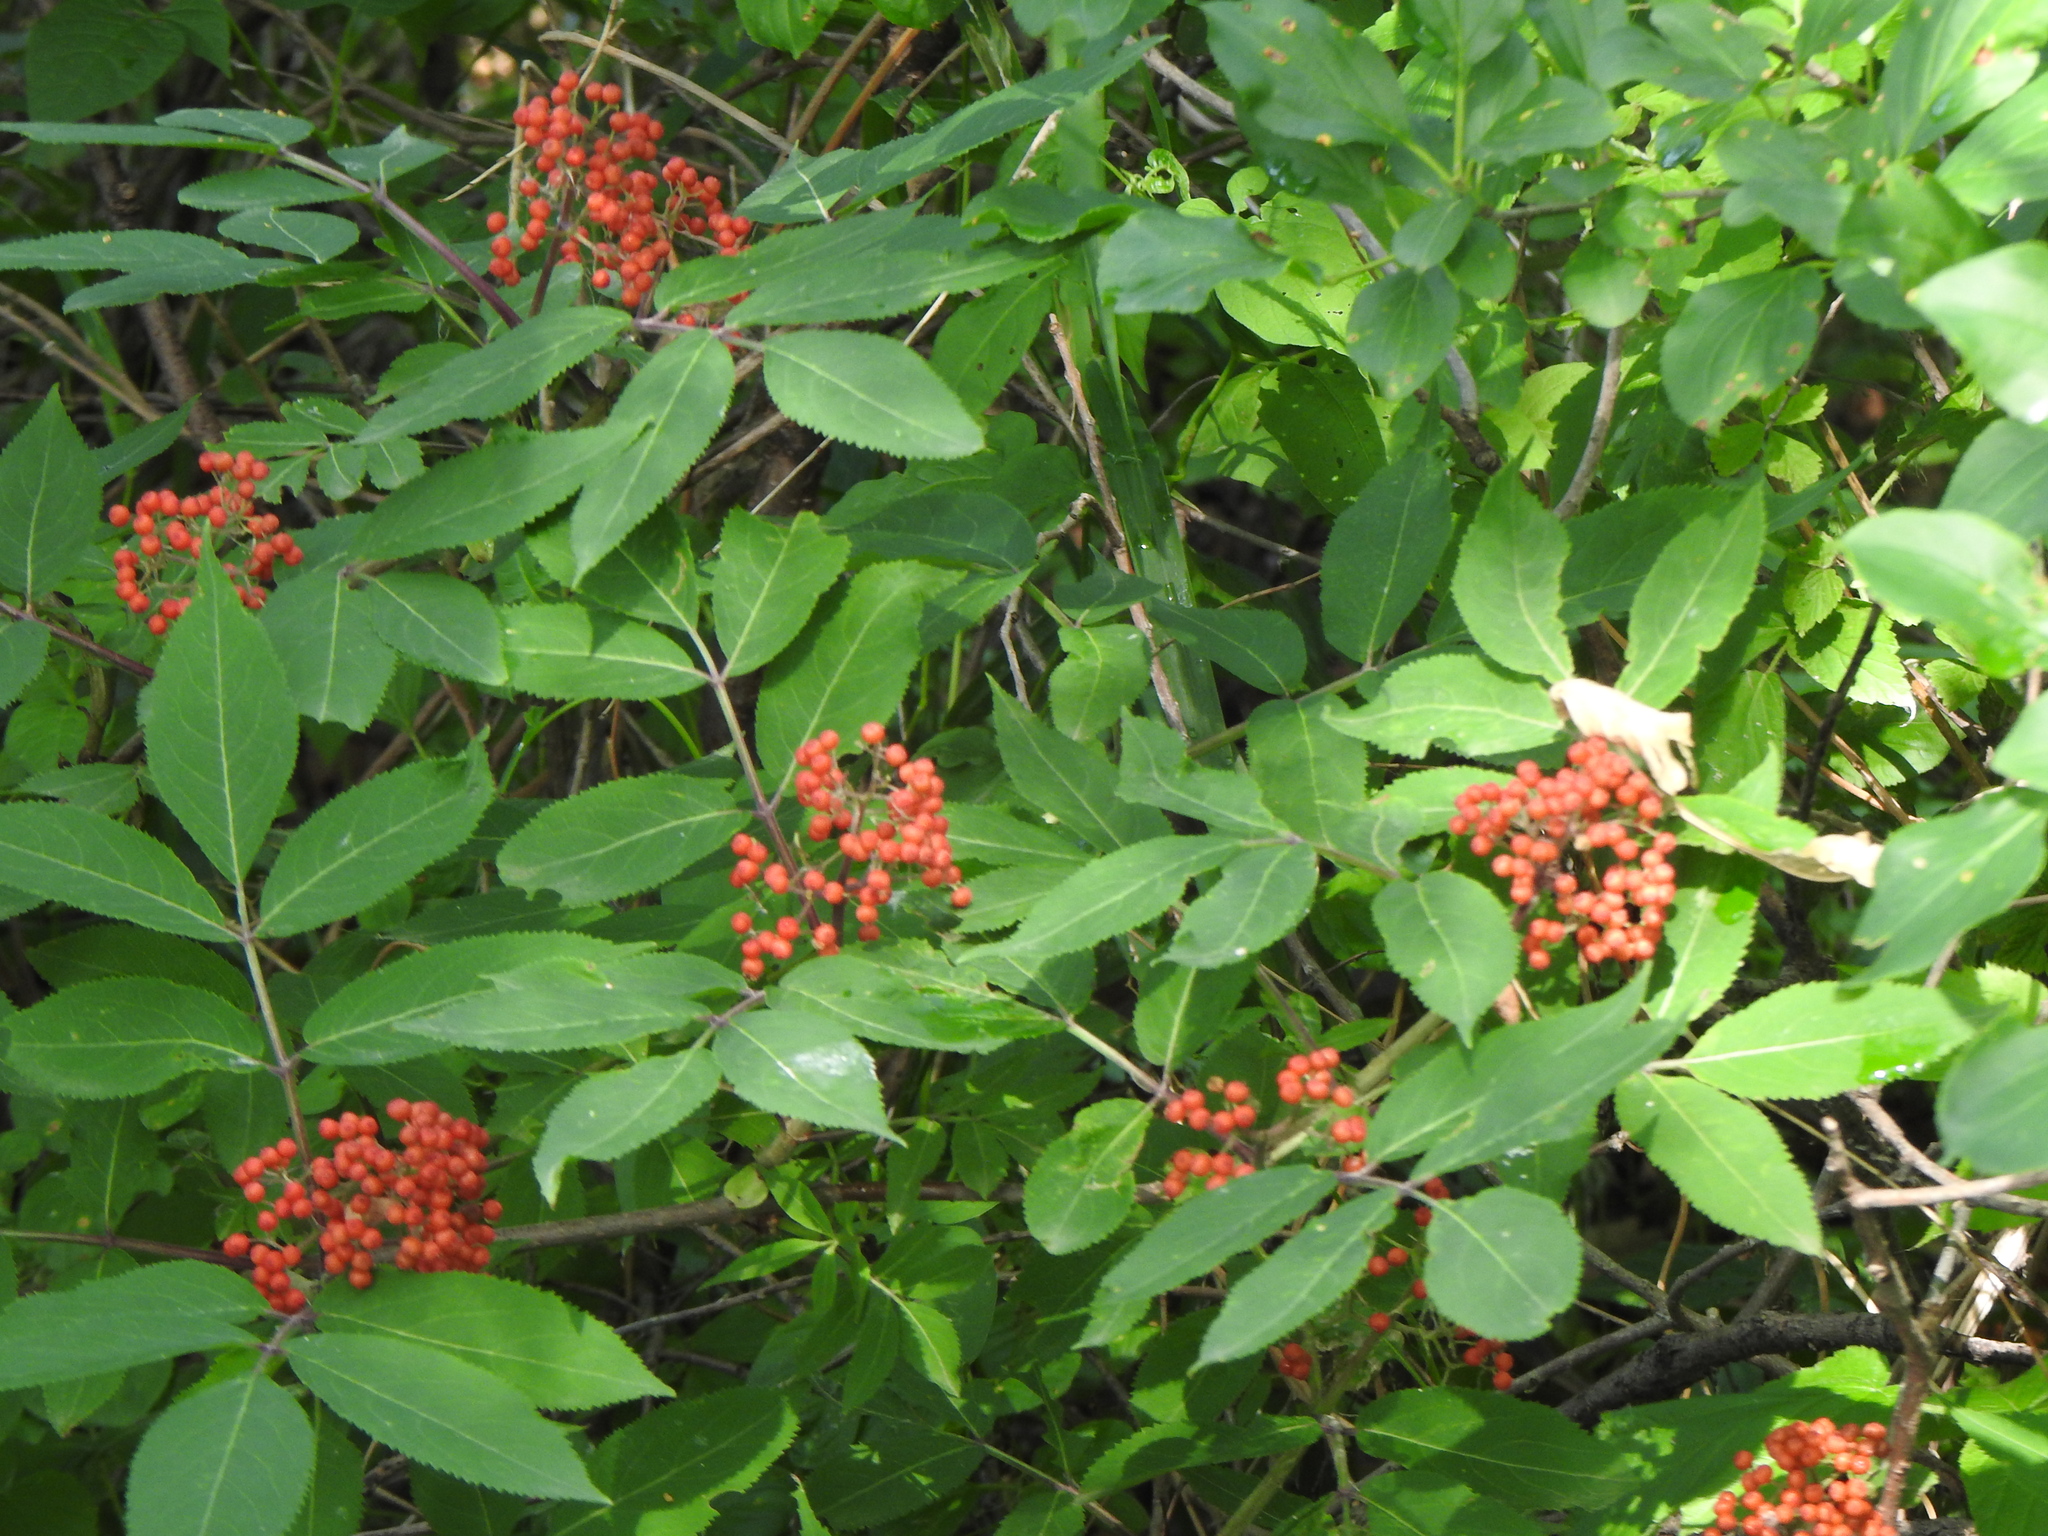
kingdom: Plantae
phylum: Tracheophyta
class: Magnoliopsida
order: Dipsacales
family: Viburnaceae
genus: Sambucus
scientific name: Sambucus racemosa
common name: Red-berried elder
